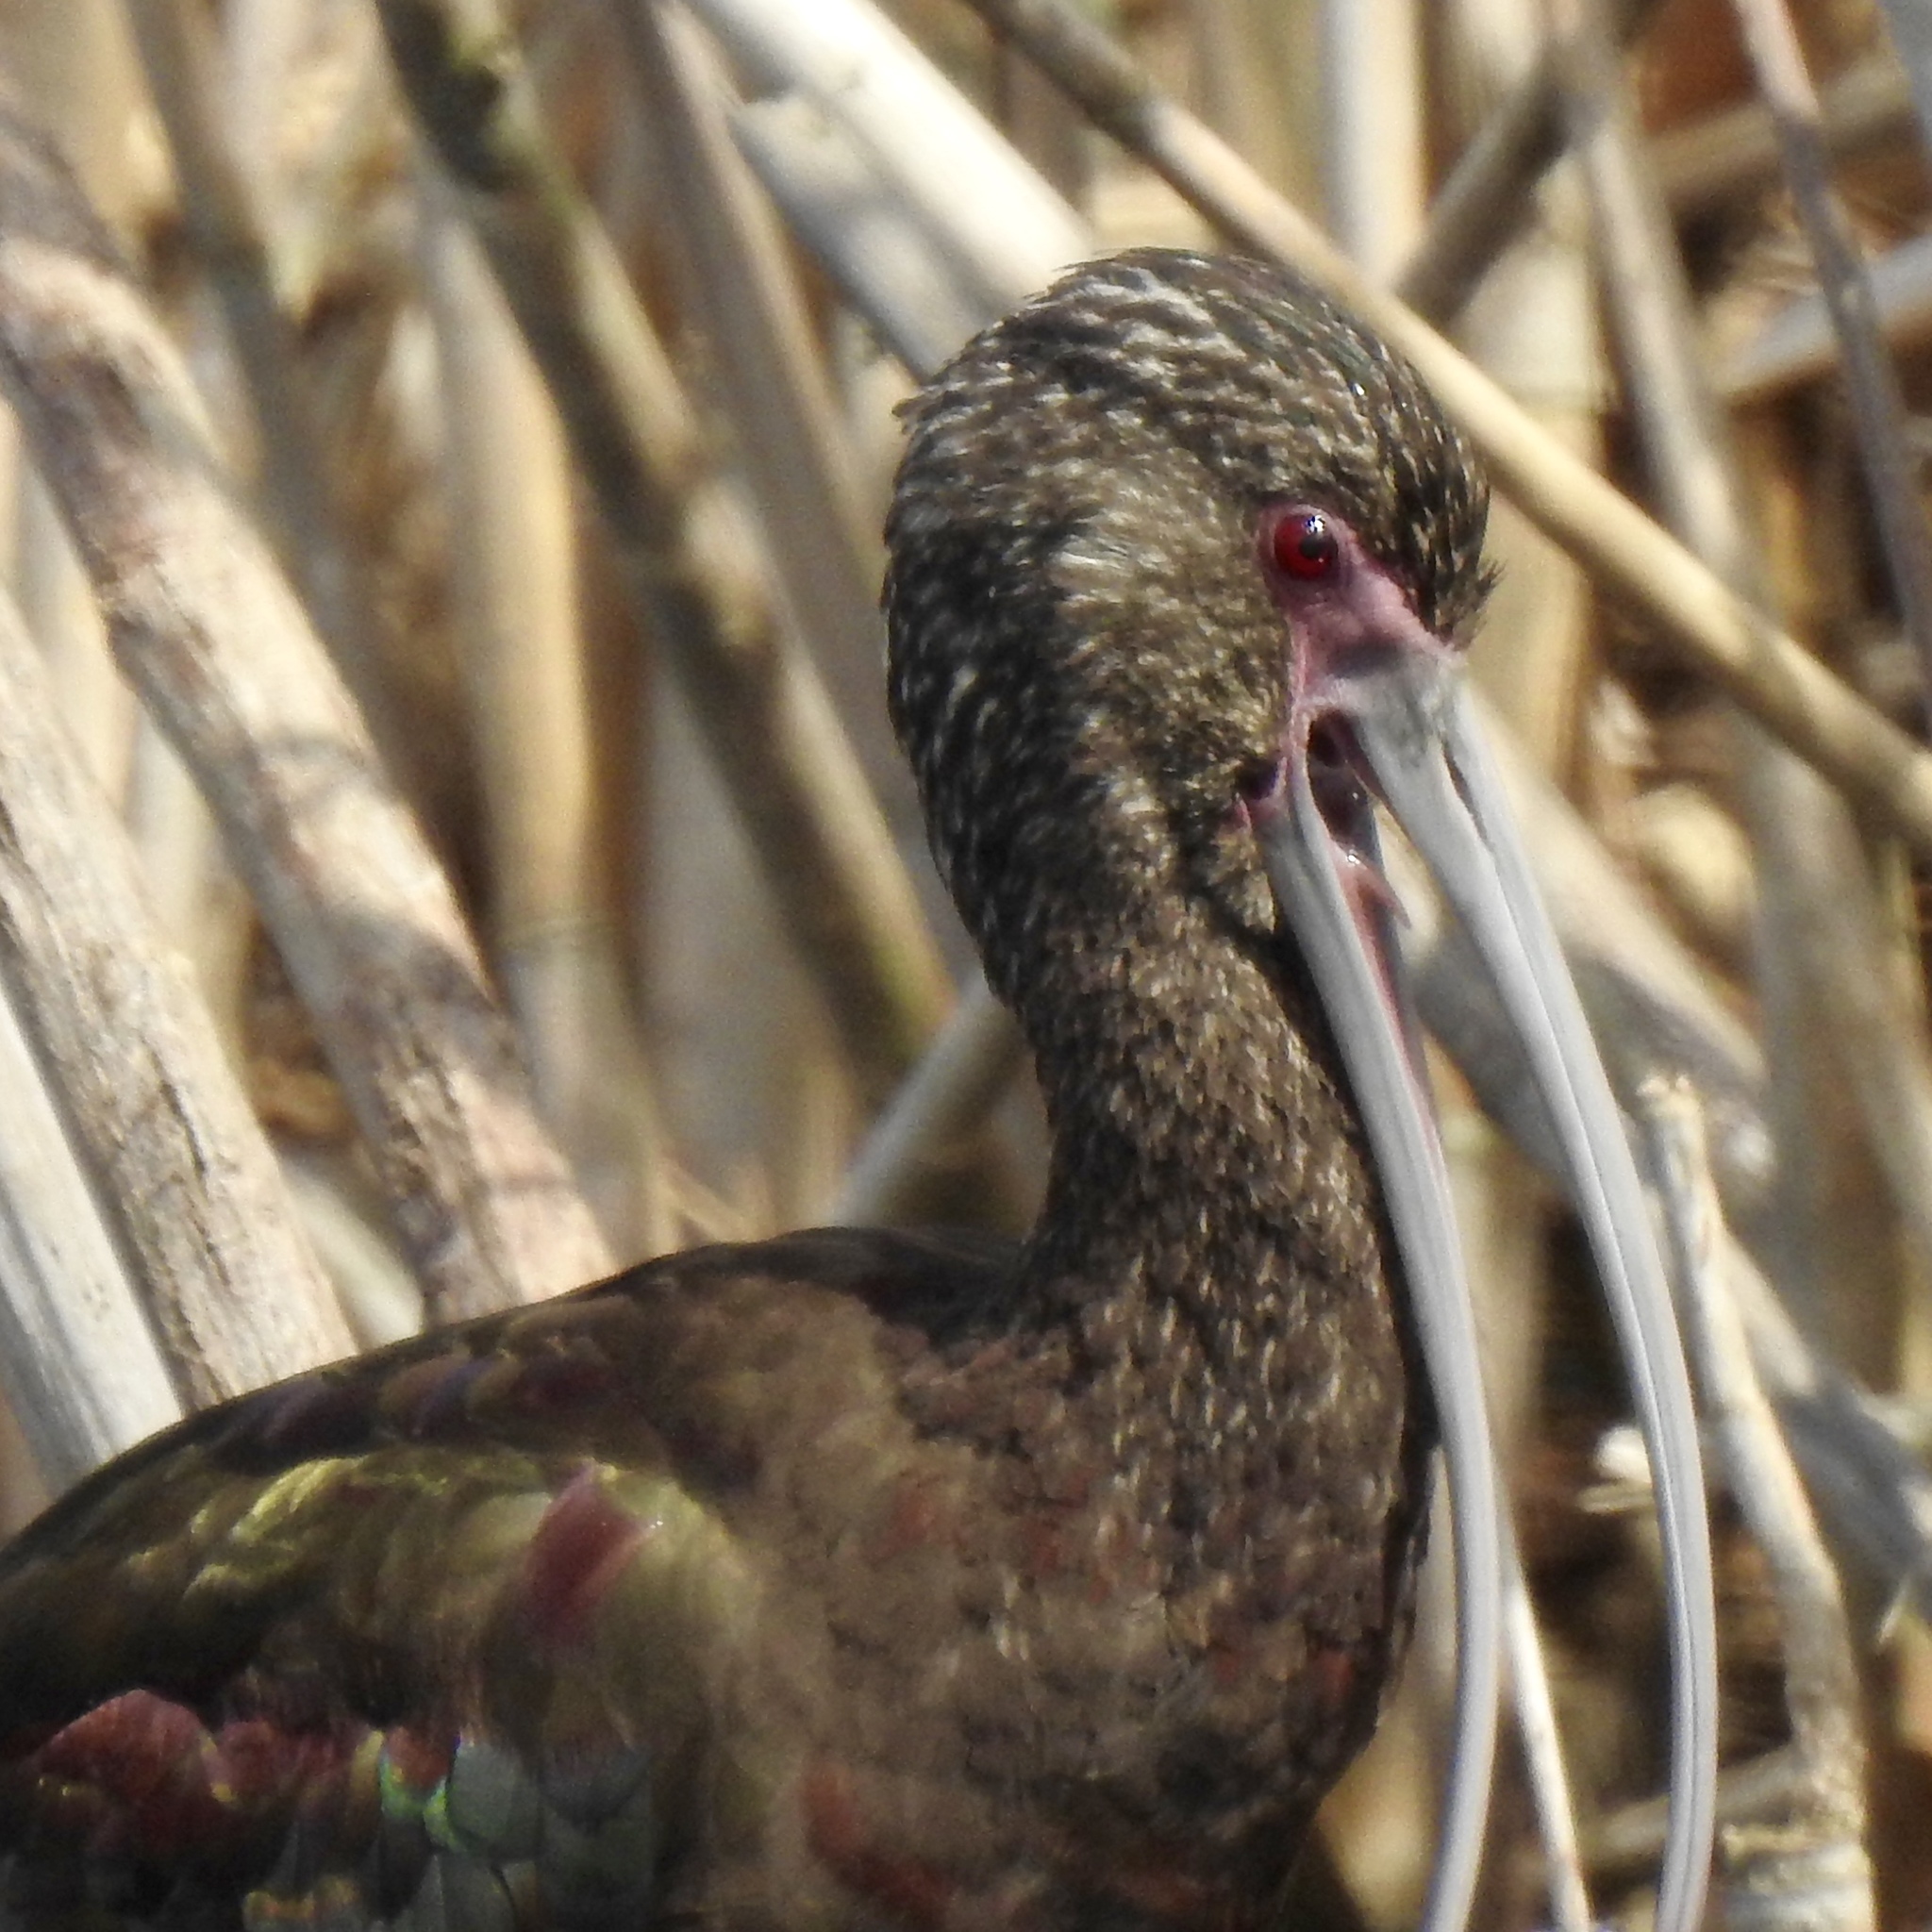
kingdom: Animalia
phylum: Chordata
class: Aves
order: Pelecaniformes
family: Threskiornithidae
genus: Plegadis
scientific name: Plegadis chihi
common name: White-faced ibis
